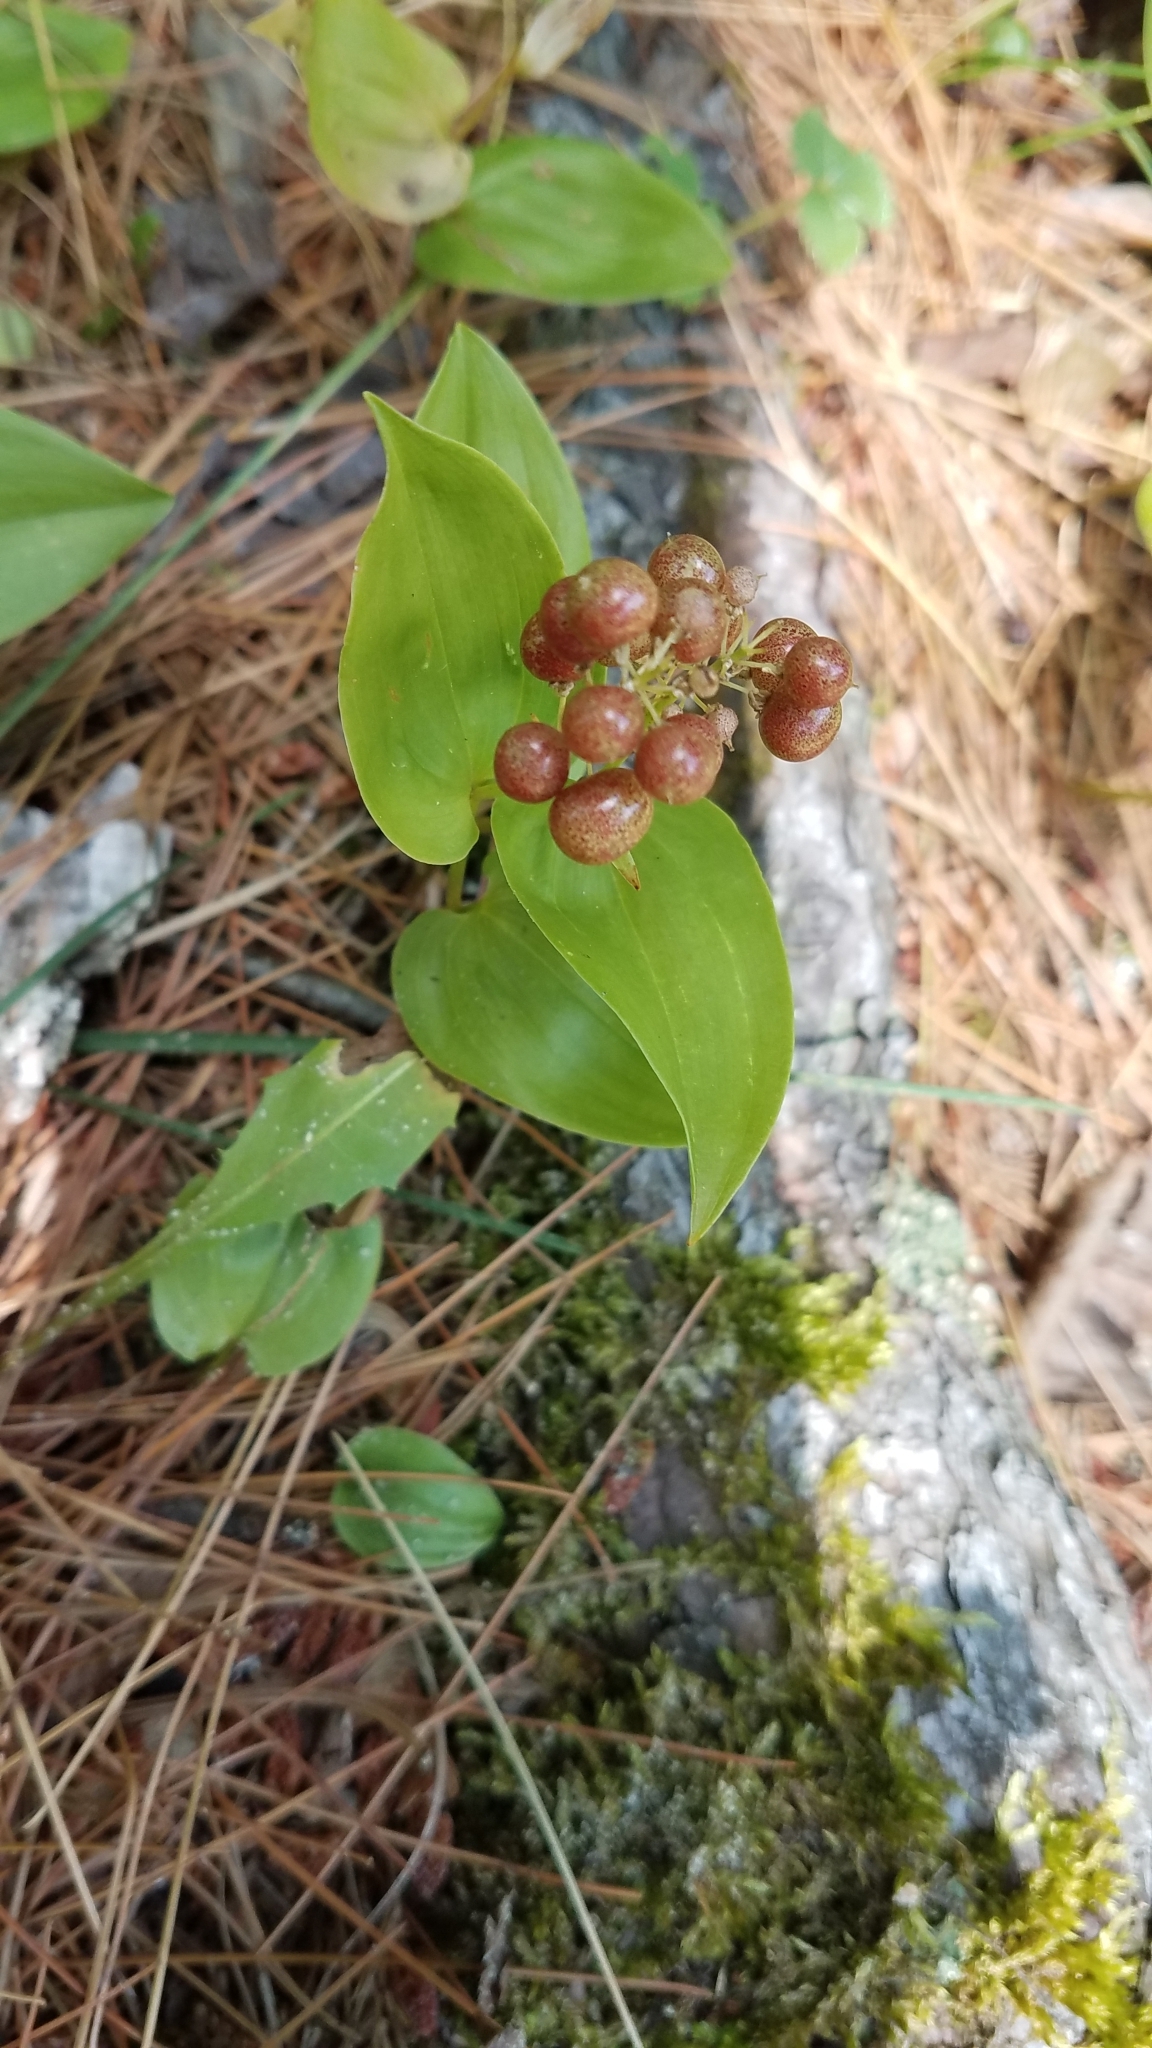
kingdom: Plantae
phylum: Tracheophyta
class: Liliopsida
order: Asparagales
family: Asparagaceae
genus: Maianthemum
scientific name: Maianthemum canadense
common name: False lily-of-the-valley
